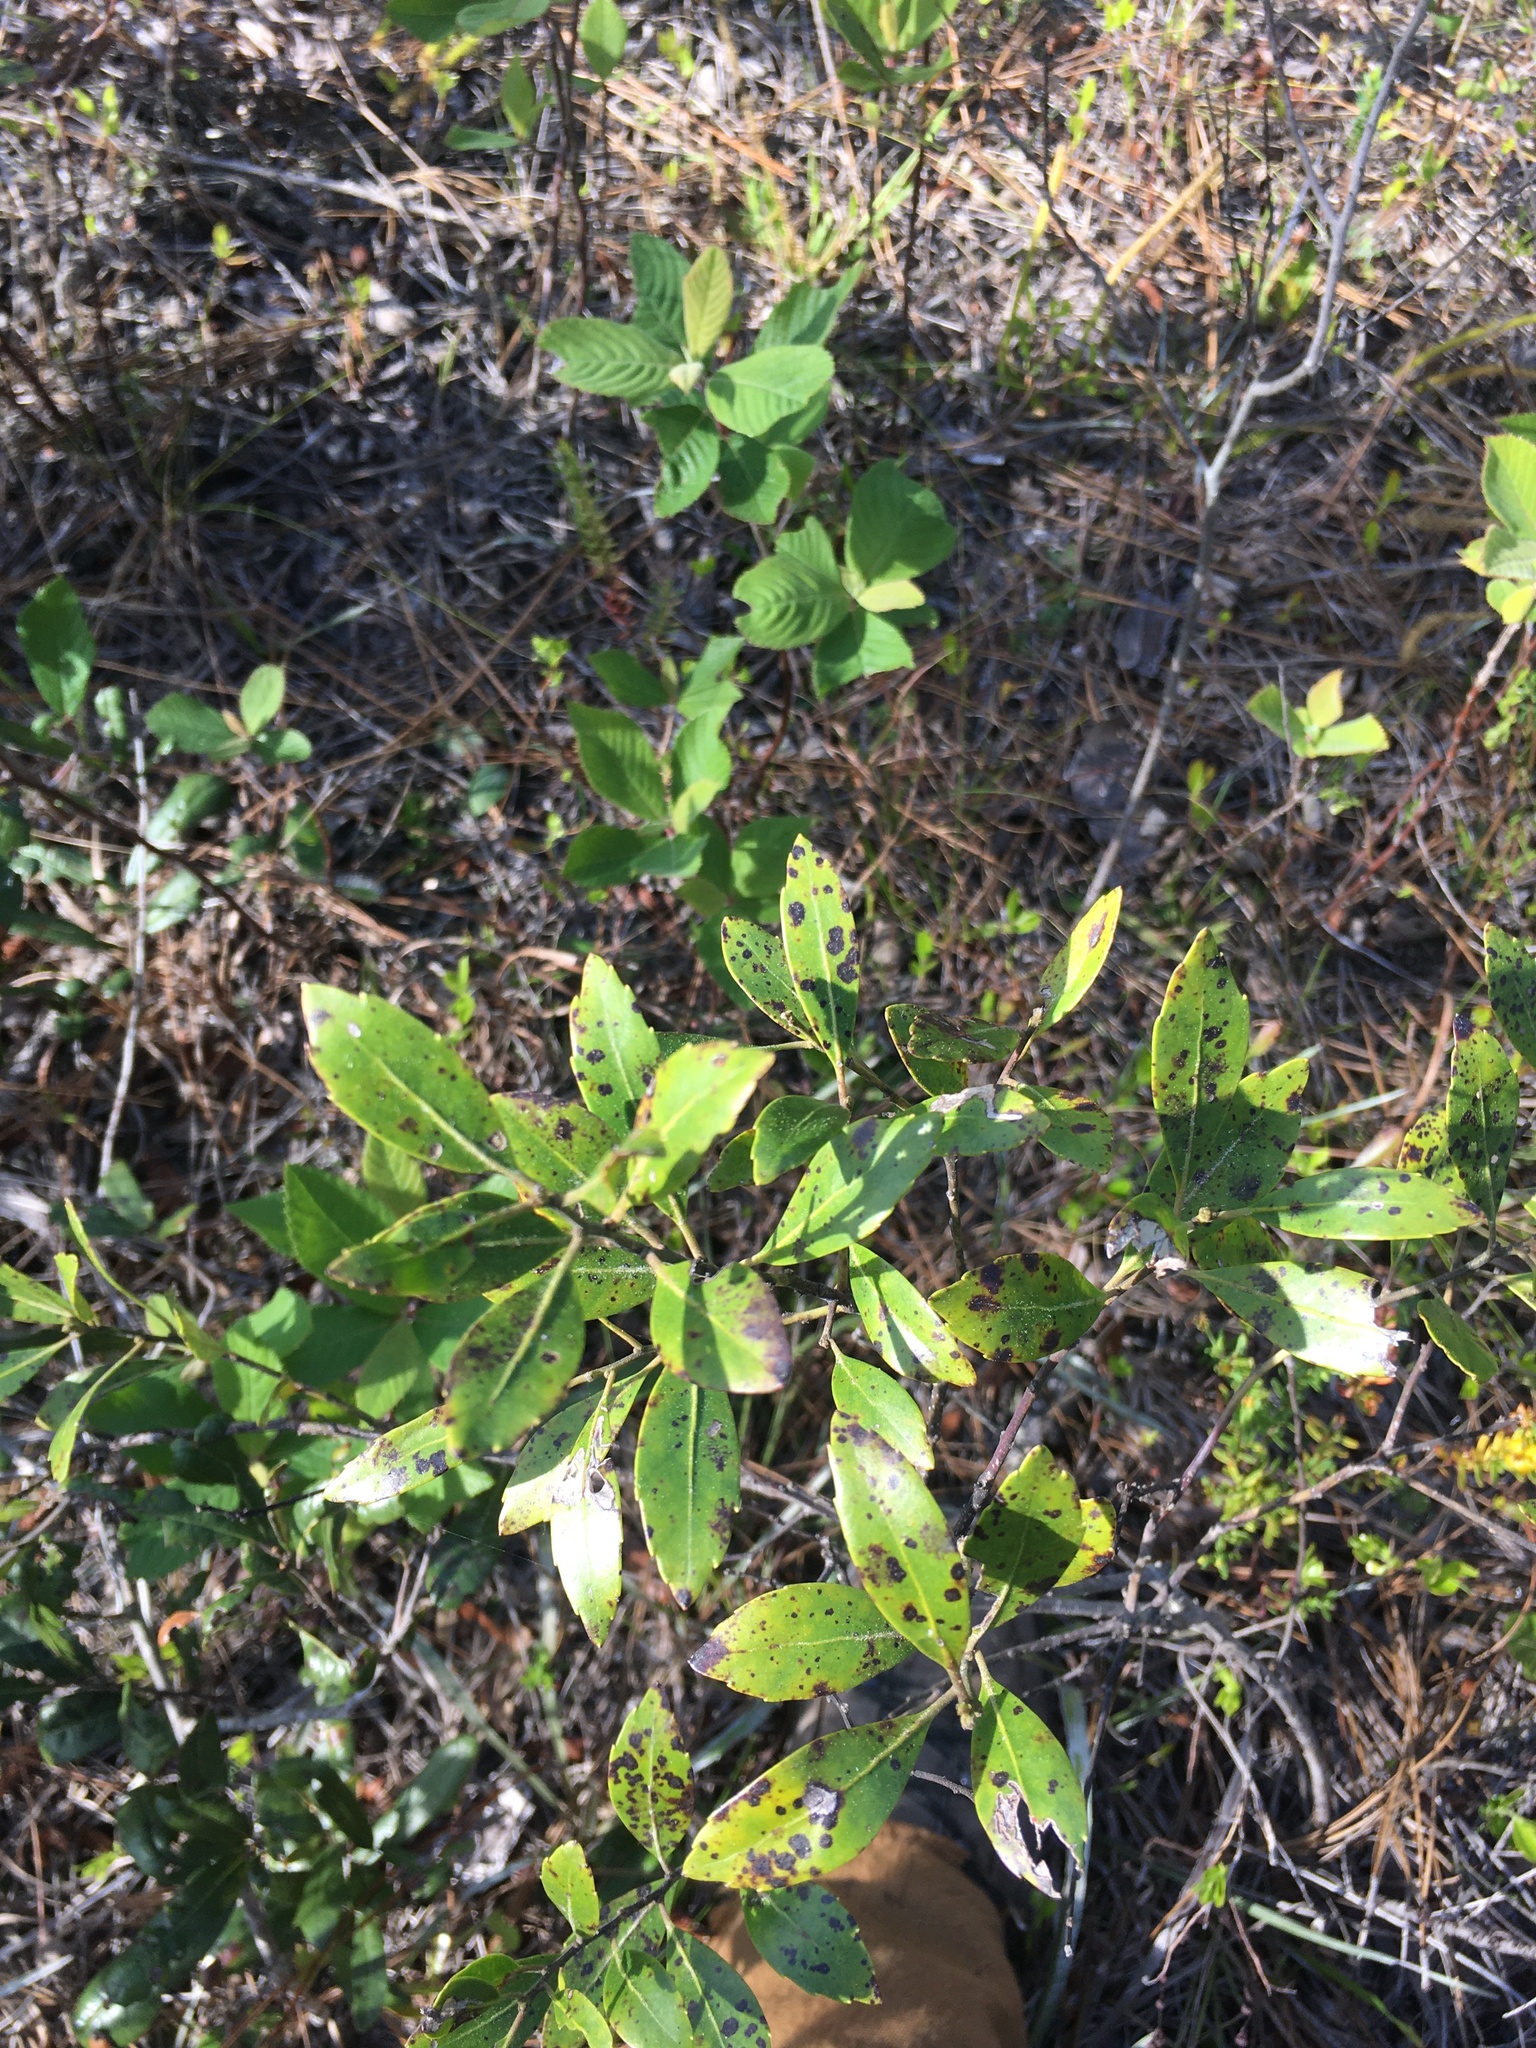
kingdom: Plantae
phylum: Tracheophyta
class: Magnoliopsida
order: Aquifoliales
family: Aquifoliaceae
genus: Ilex
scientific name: Ilex glabra
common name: Bitter gallberry
